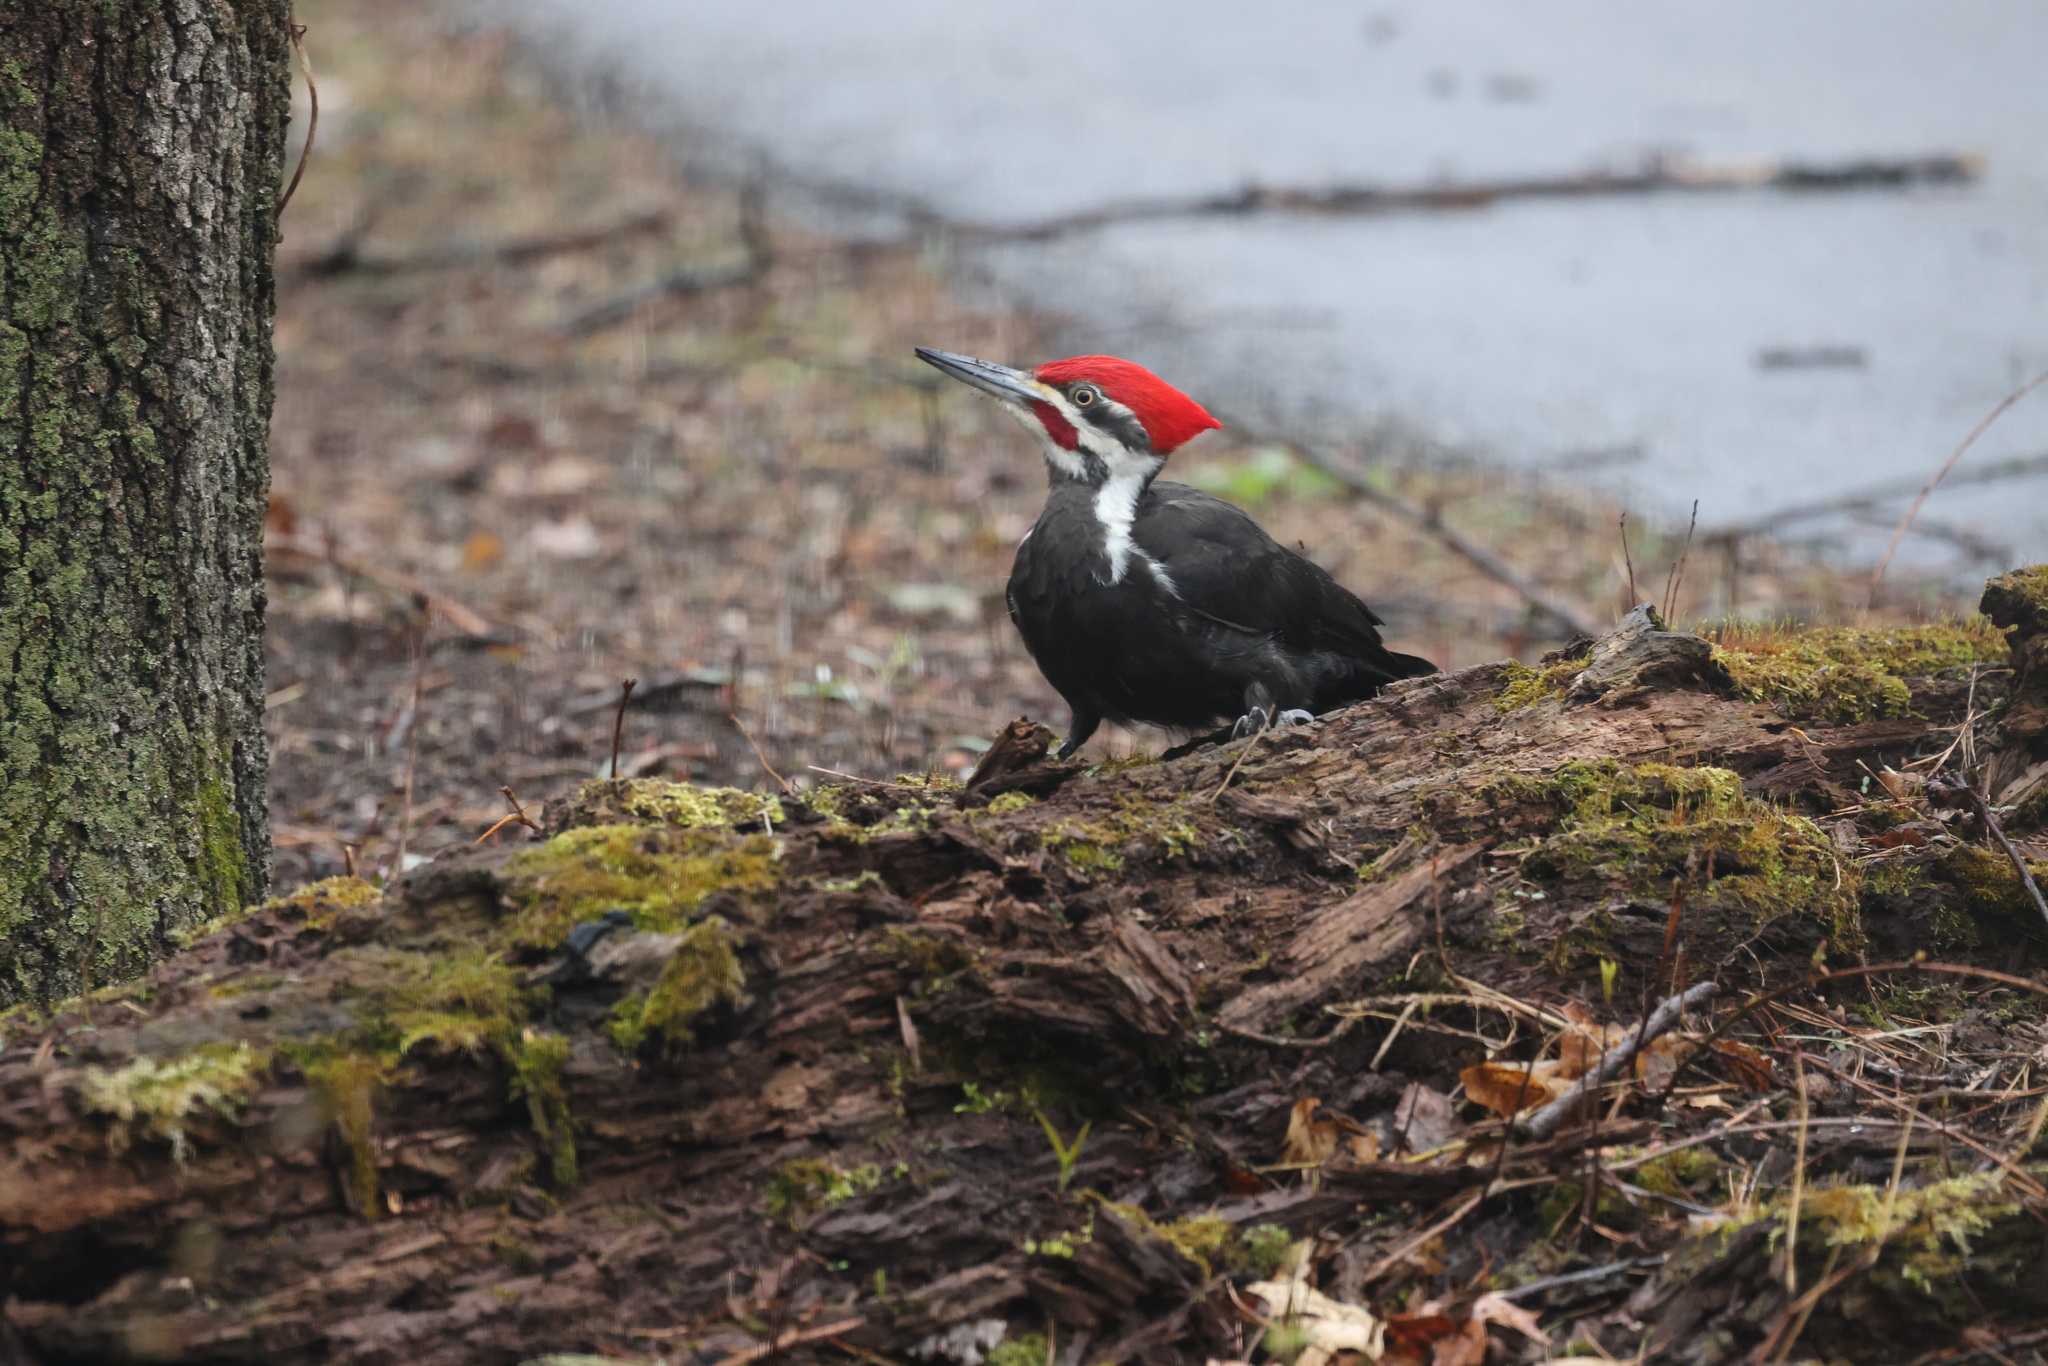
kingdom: Animalia
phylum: Chordata
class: Aves
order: Piciformes
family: Picidae
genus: Dryocopus
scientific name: Dryocopus pileatus
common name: Pileated woodpecker
